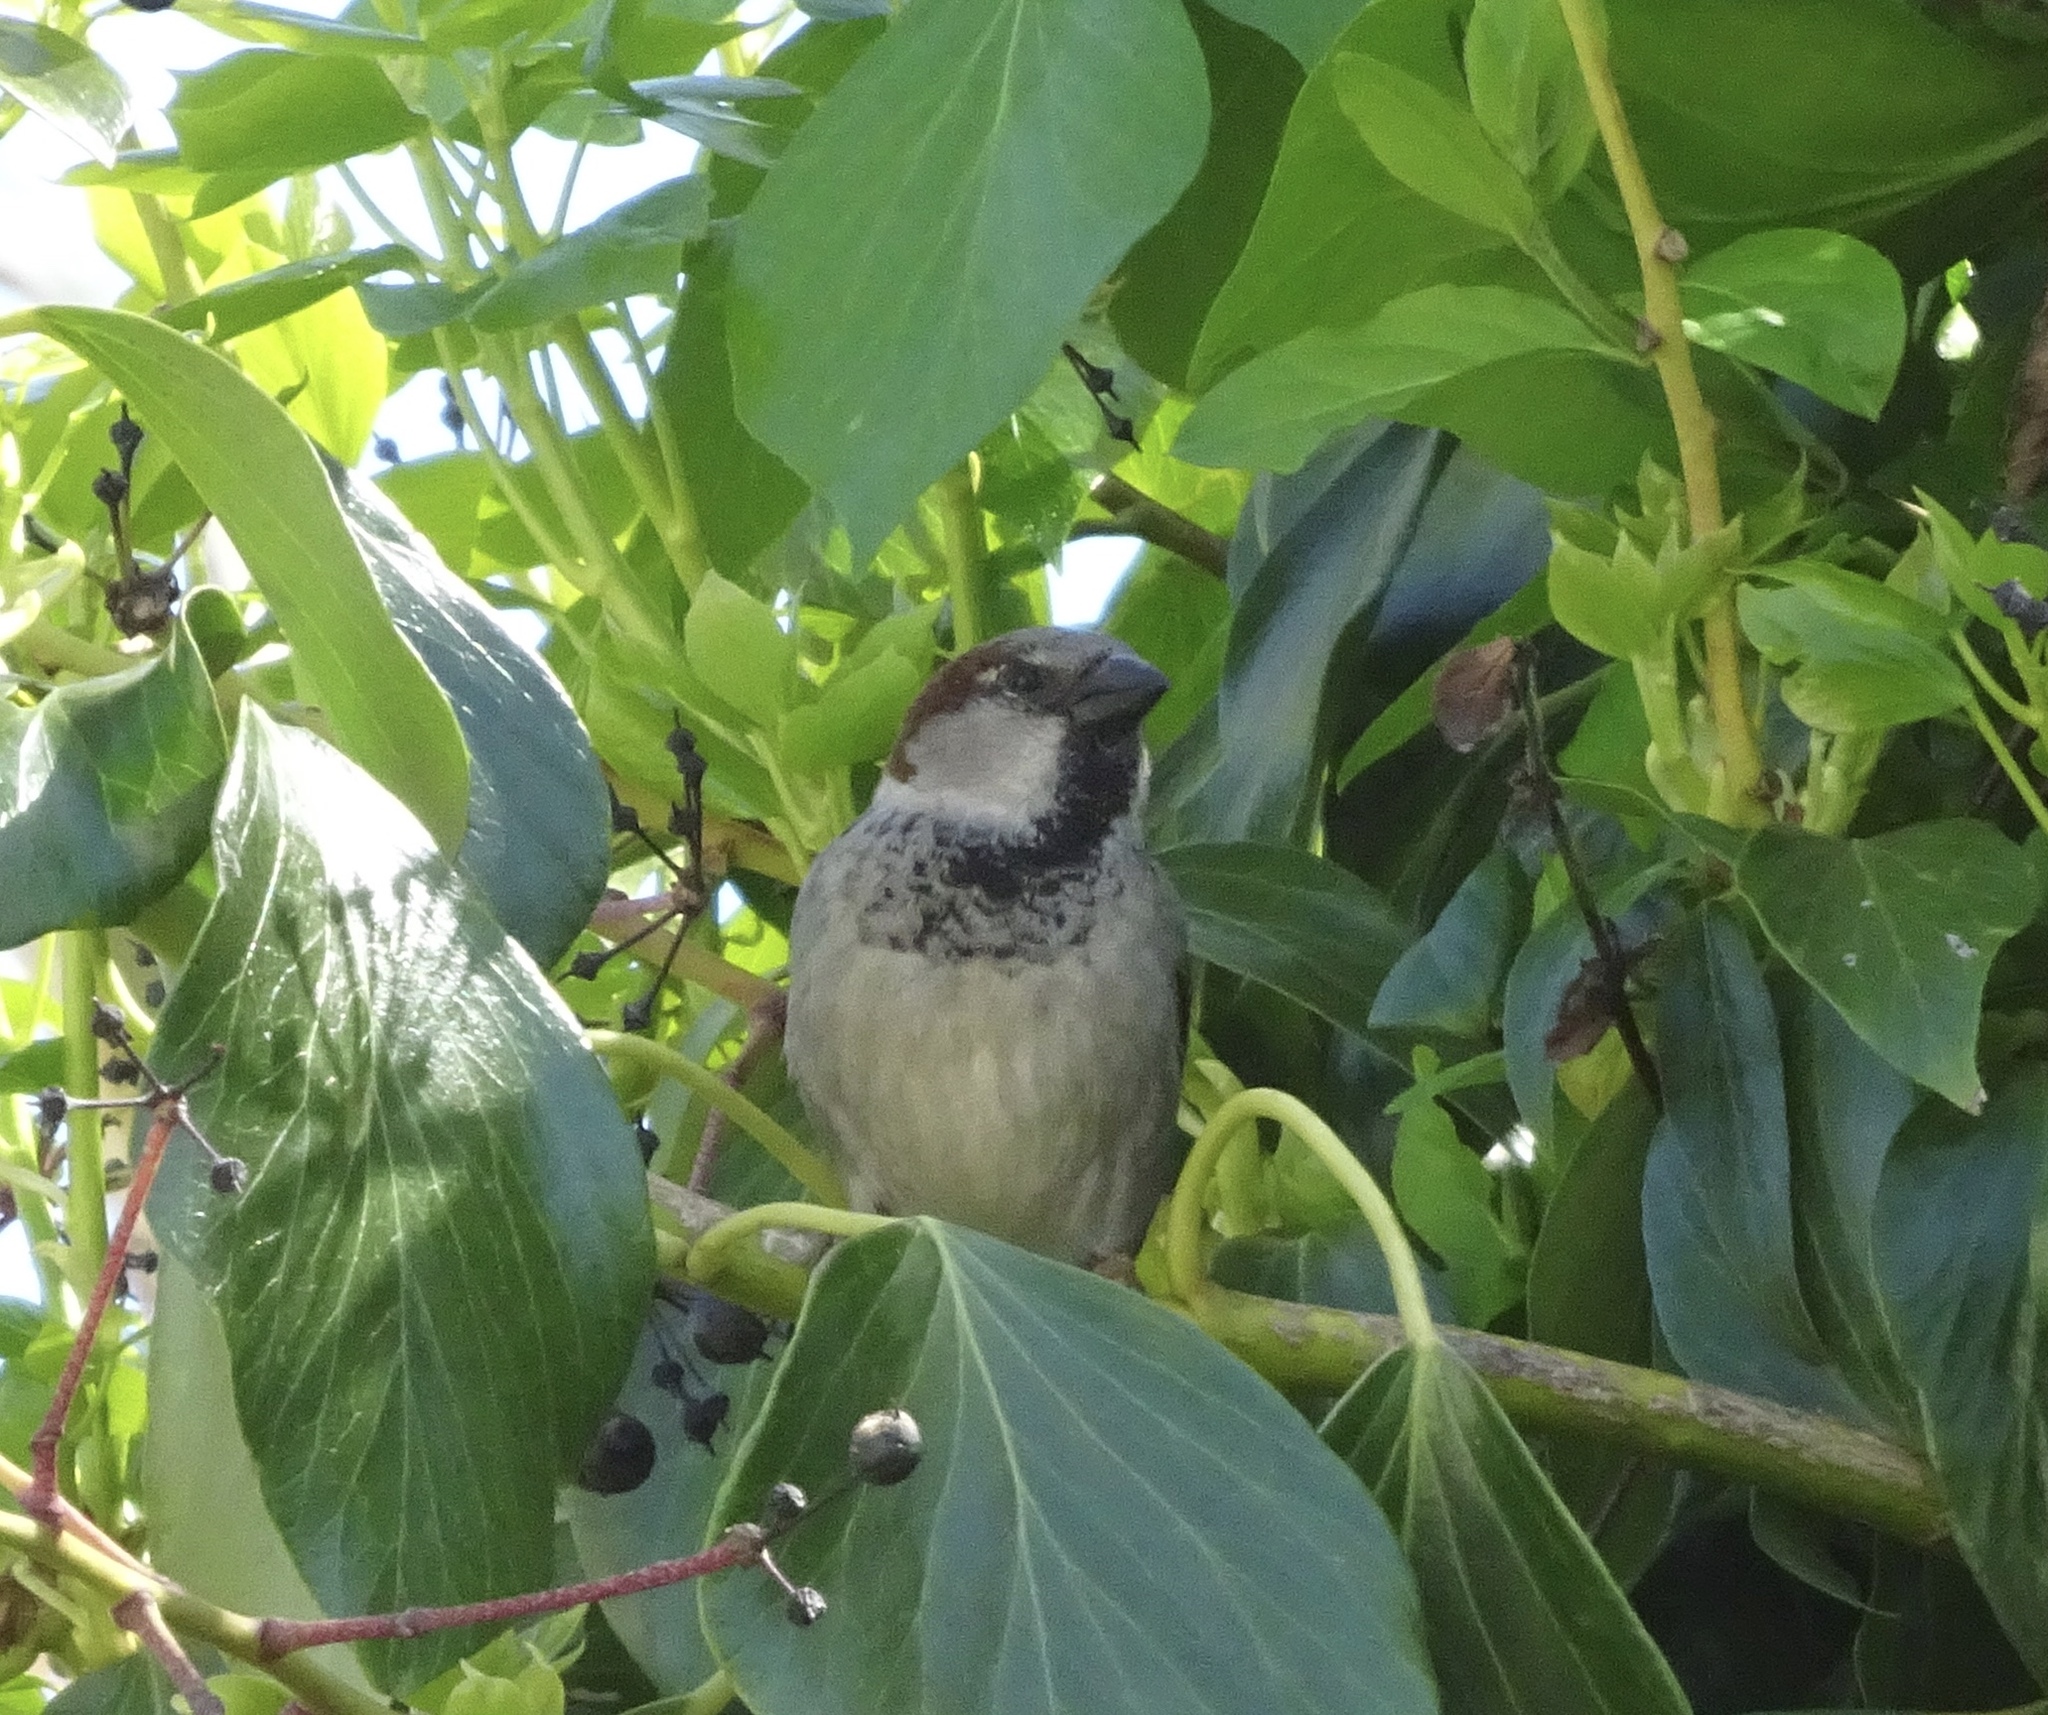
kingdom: Animalia
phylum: Chordata
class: Aves
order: Passeriformes
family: Passeridae
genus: Passer
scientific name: Passer domesticus
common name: House sparrow
